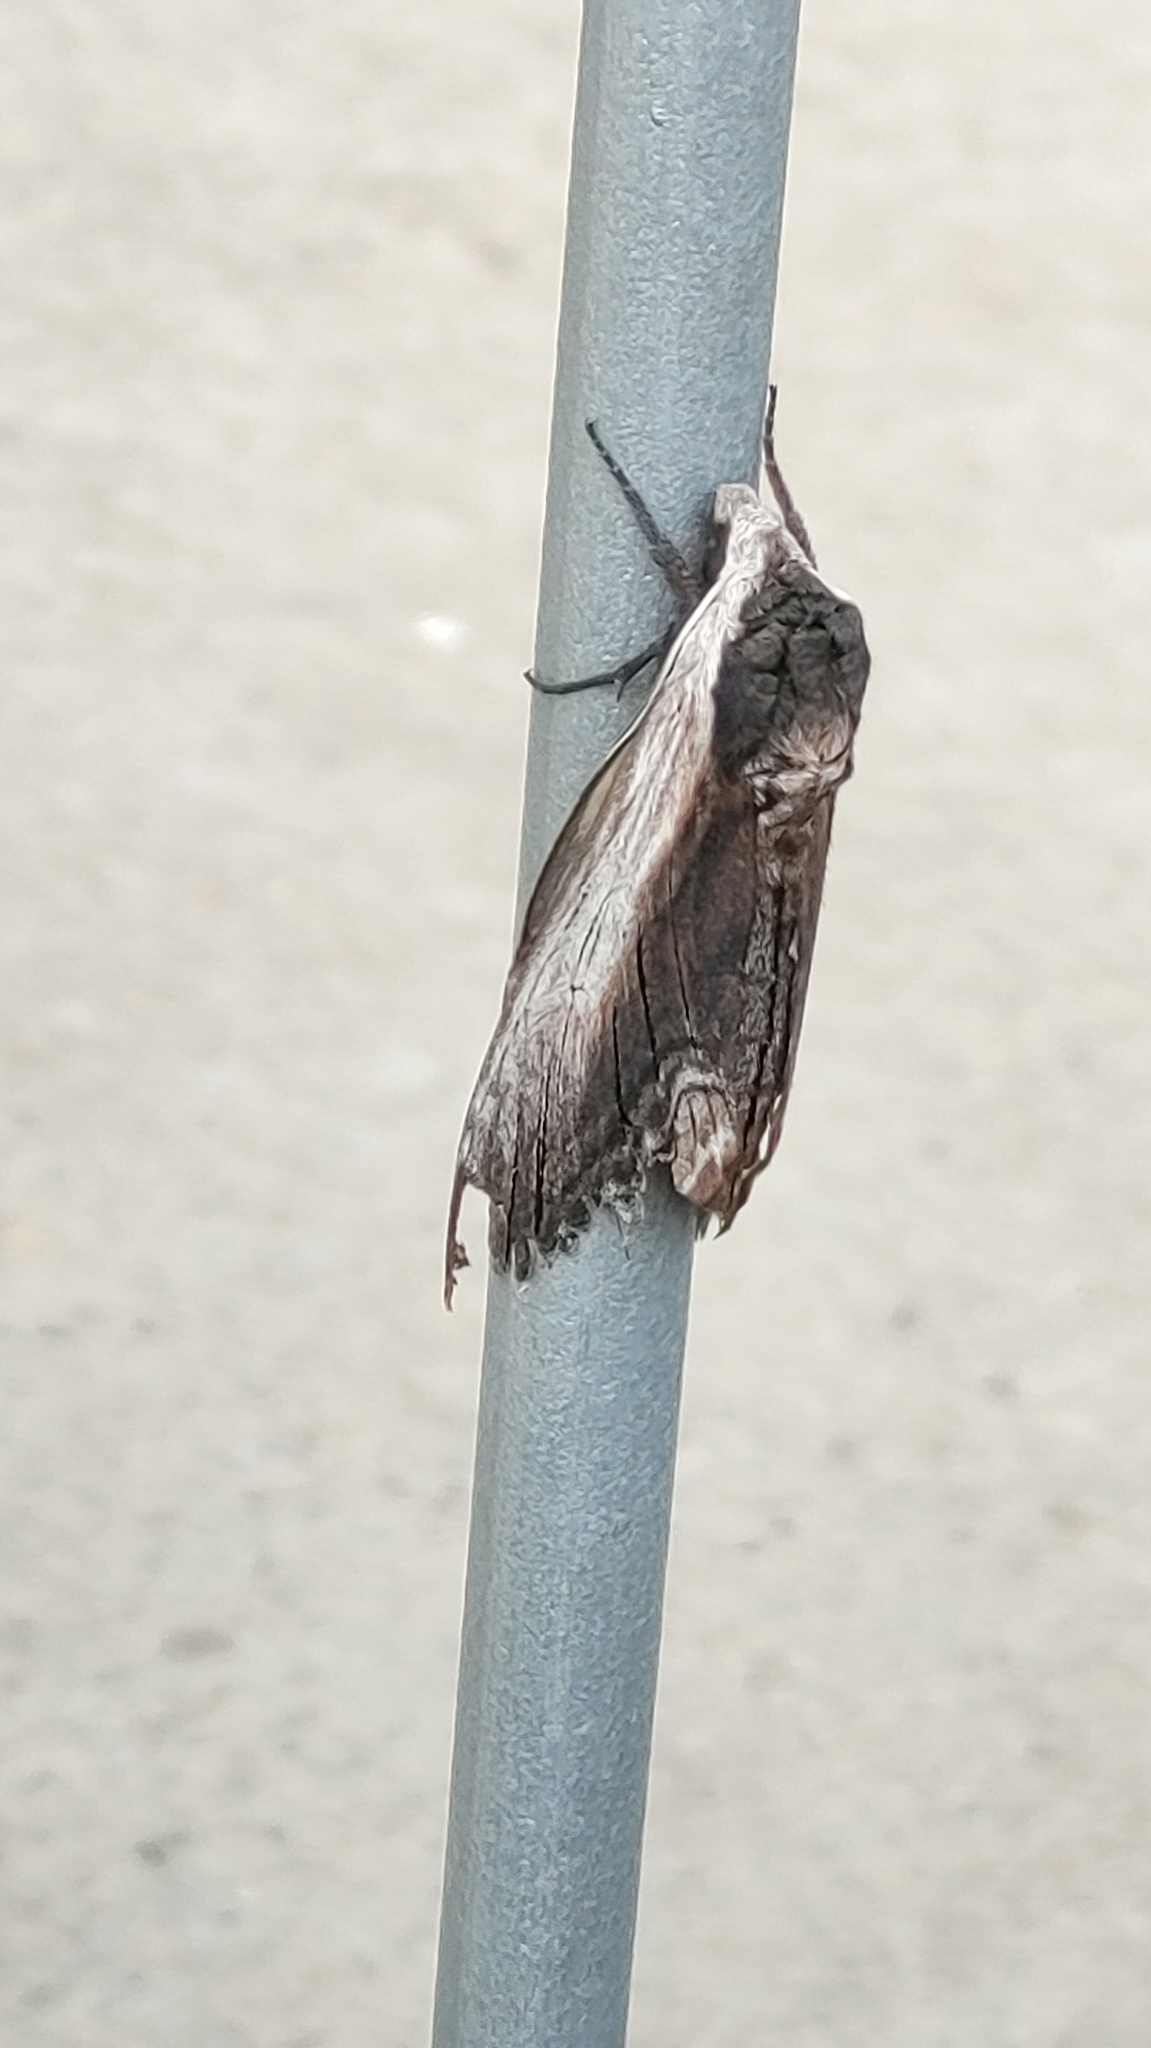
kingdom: Animalia
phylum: Arthropoda
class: Insecta
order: Lepidoptera
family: Sphingidae
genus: Sphinx
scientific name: Sphinx drupiferarum
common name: Wild cherry sphinx
